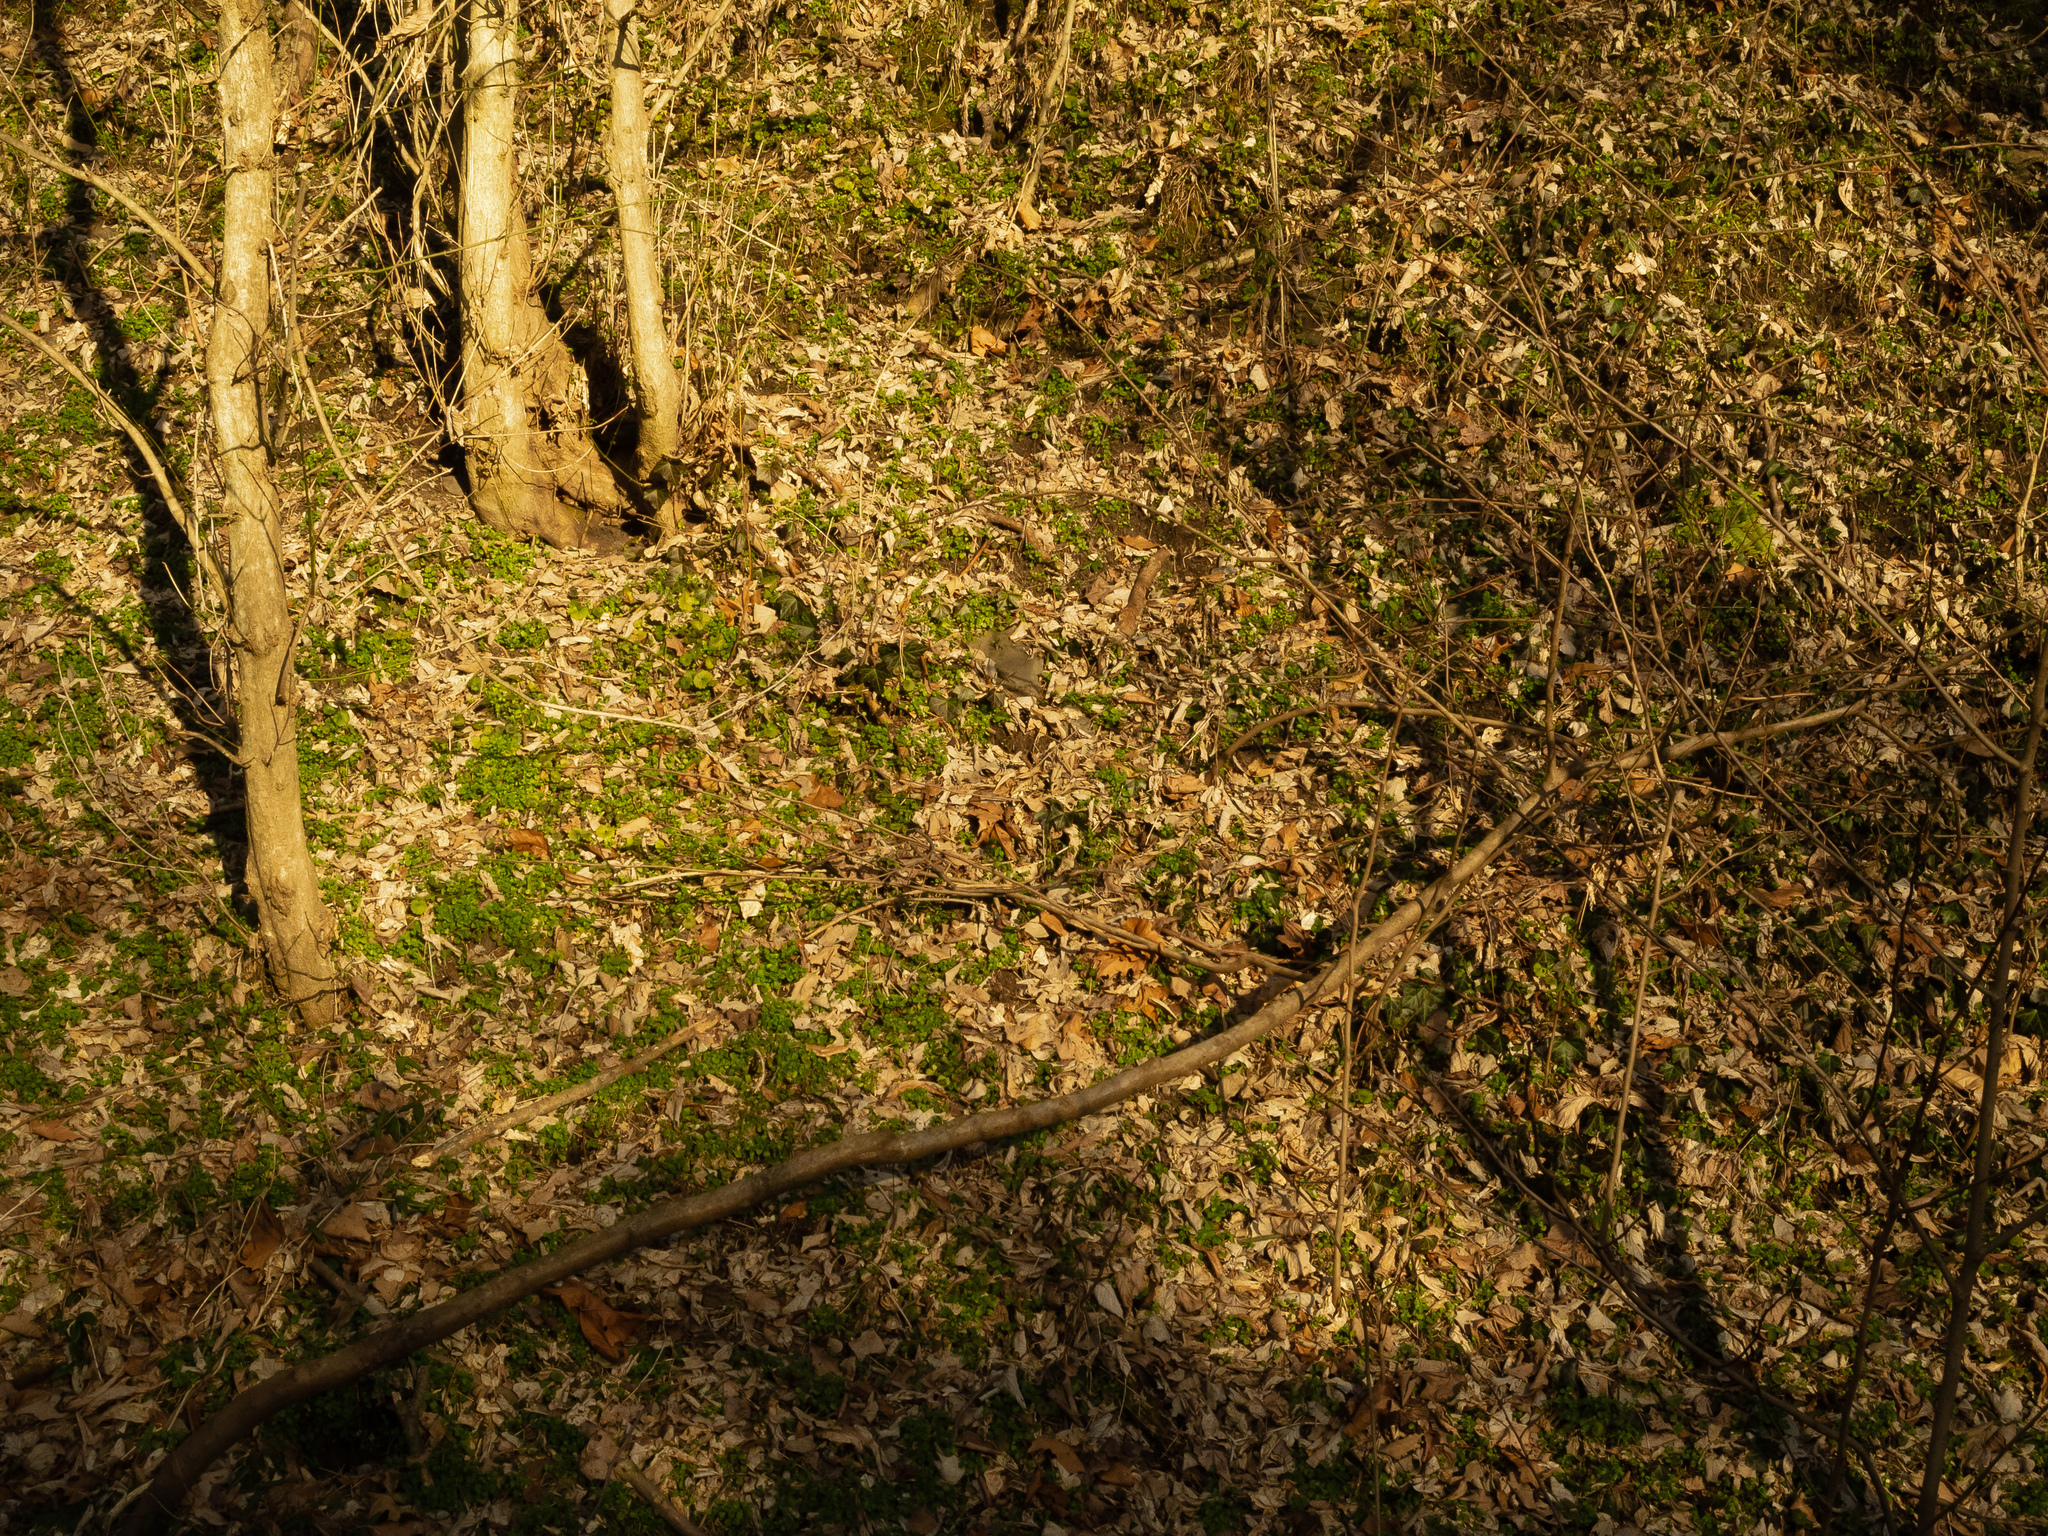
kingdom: Plantae
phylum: Tracheophyta
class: Magnoliopsida
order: Lamiales
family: Lamiaceae
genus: Glechoma
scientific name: Glechoma hederacea
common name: Ground ivy
